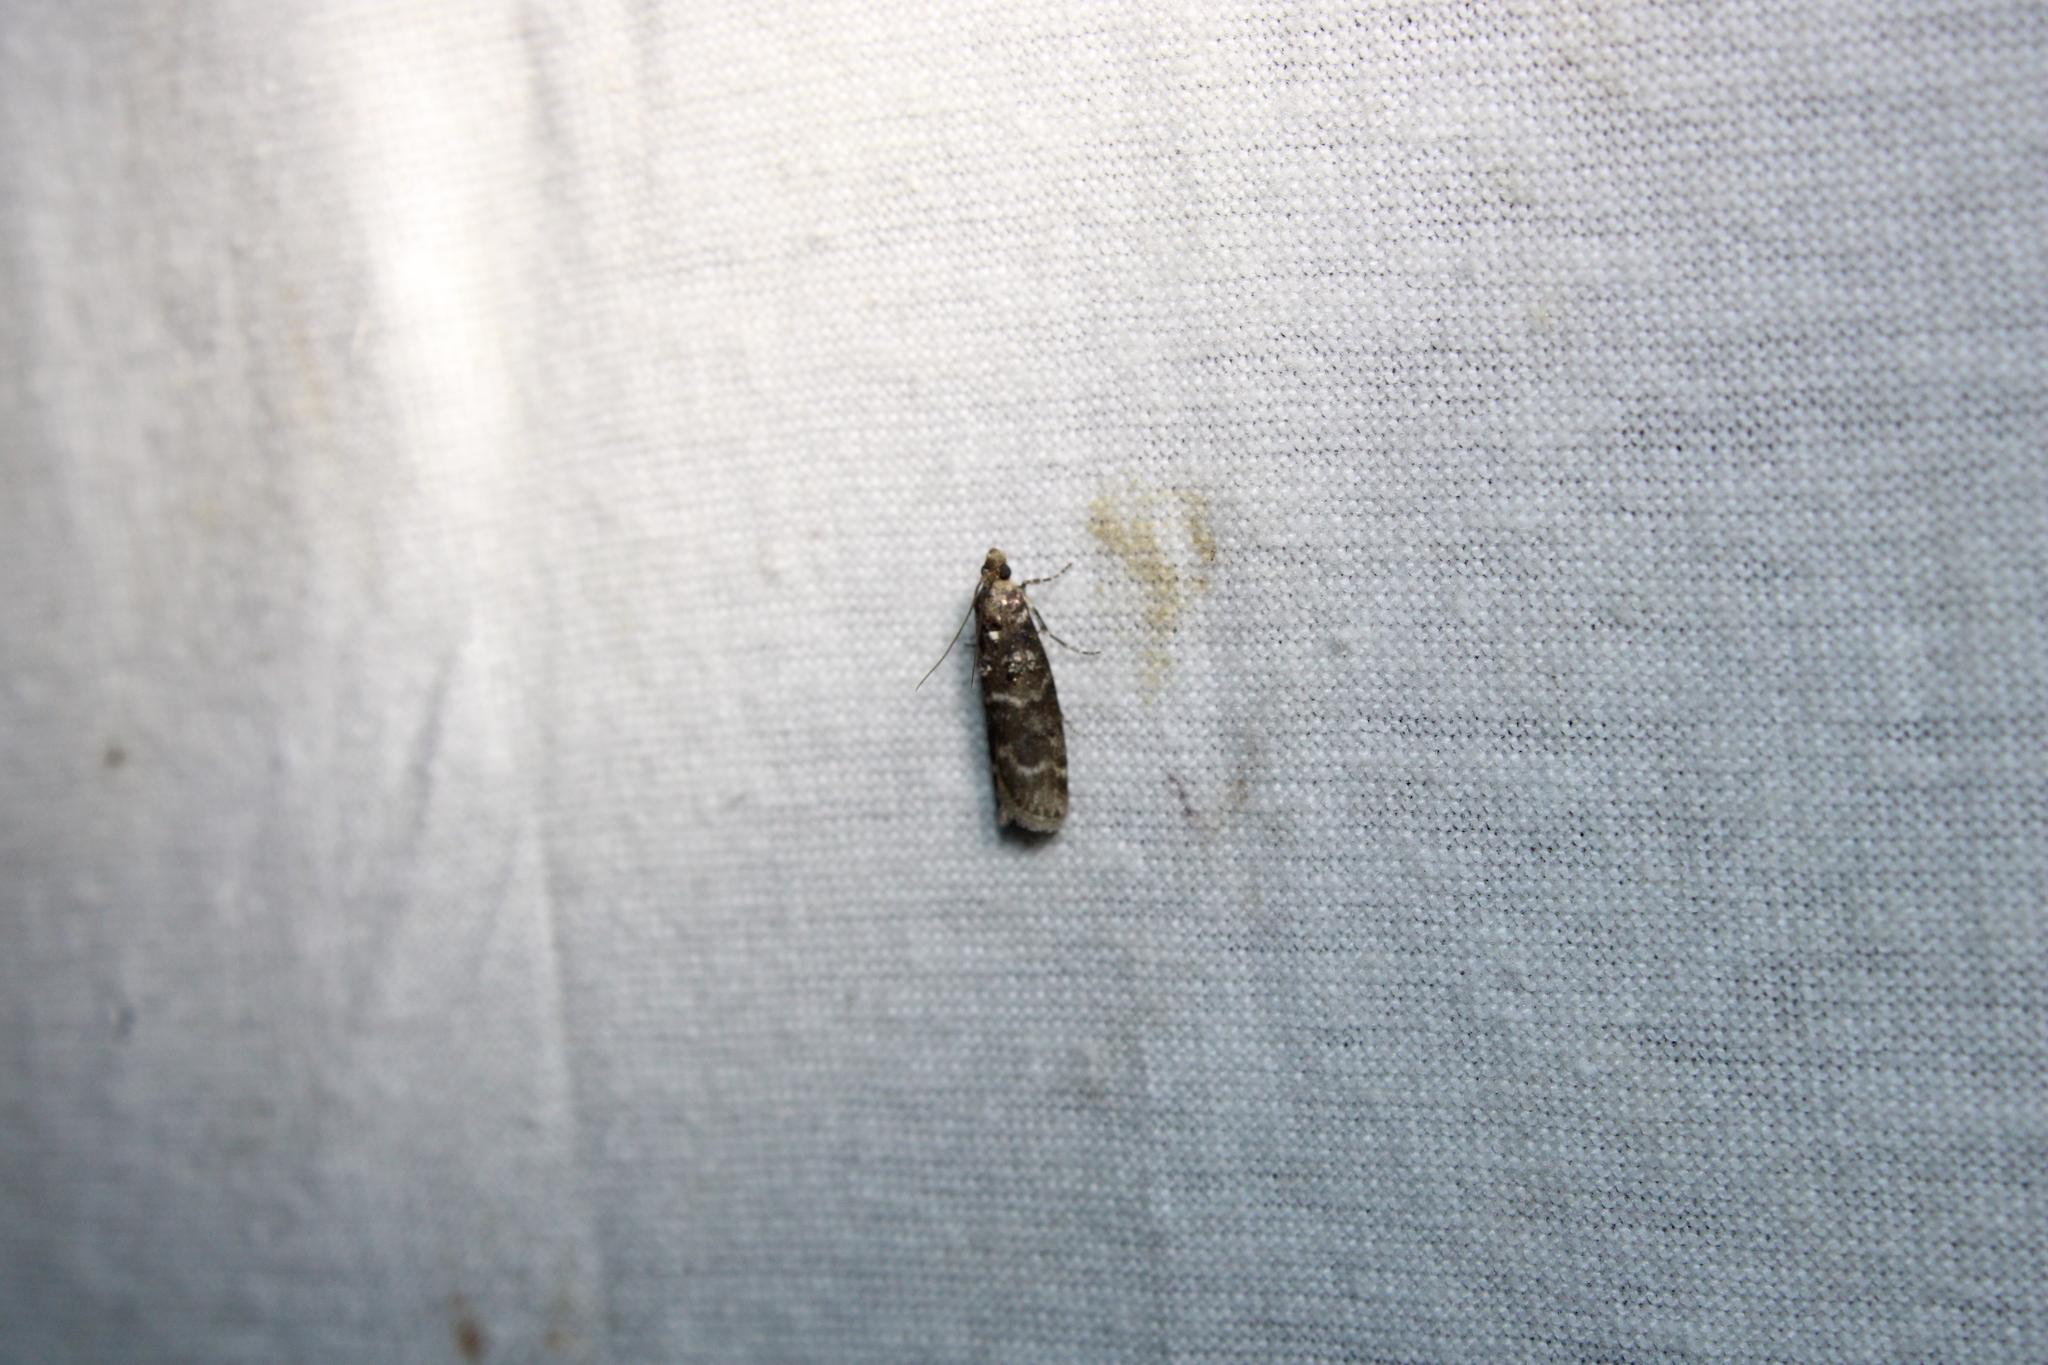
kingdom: Animalia
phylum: Arthropoda
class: Insecta
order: Lepidoptera
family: Pyralidae
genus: Ortholepis
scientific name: Ortholepis pasadamia
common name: Striped birch pyralid moth
